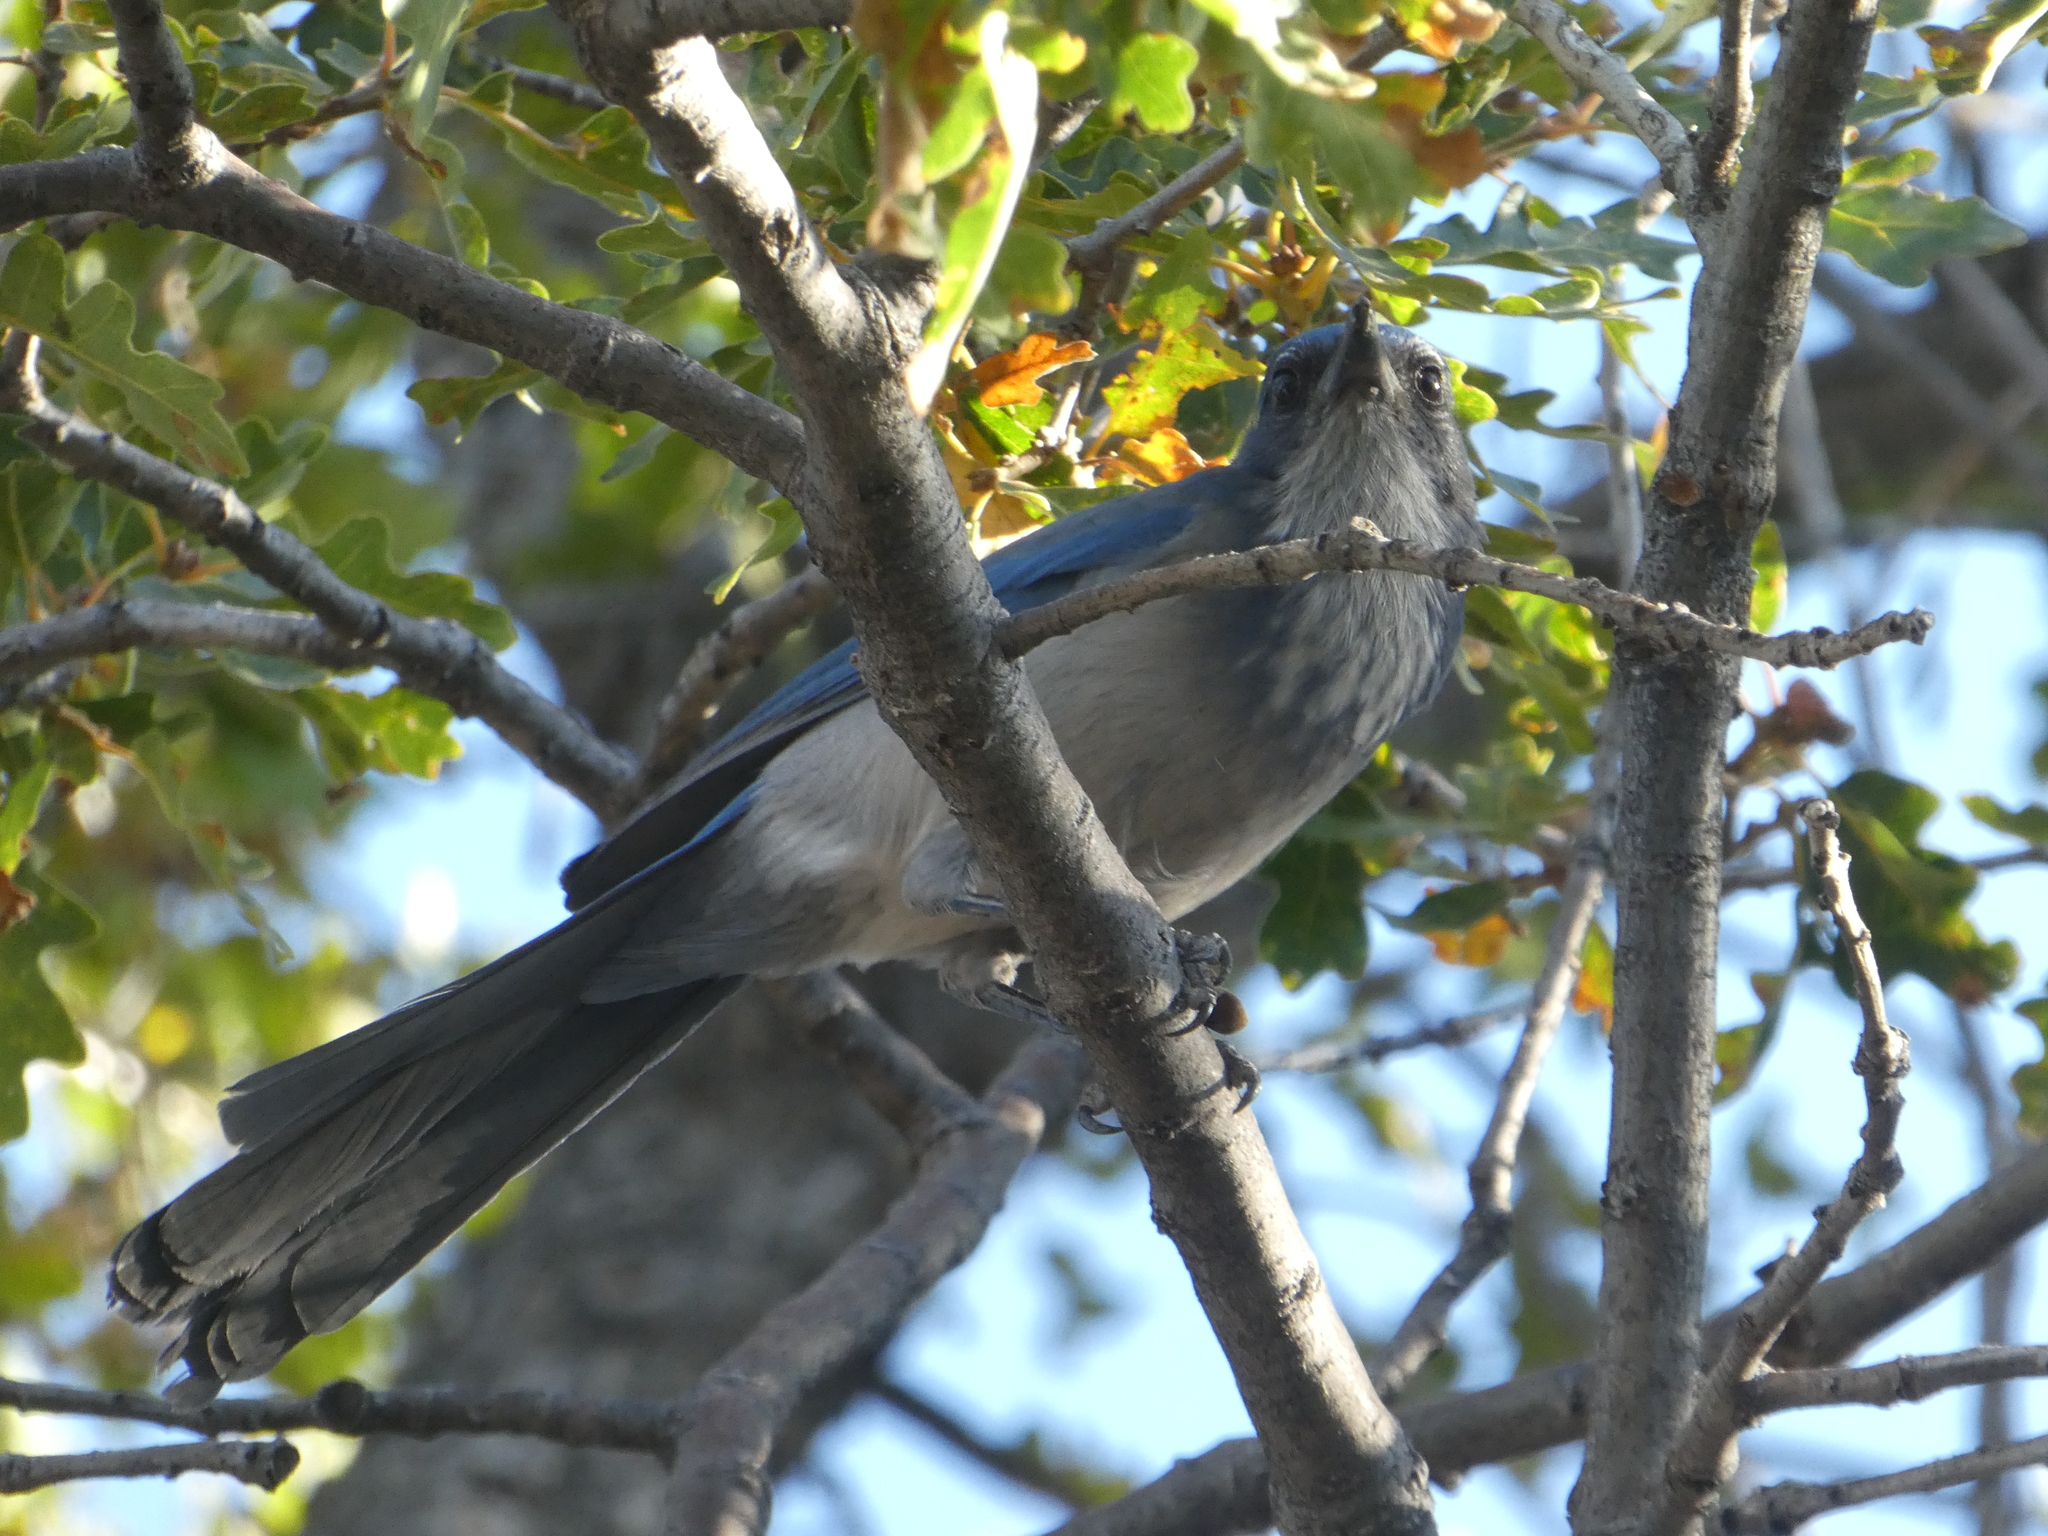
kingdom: Animalia
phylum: Chordata
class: Aves
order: Passeriformes
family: Corvidae
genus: Aphelocoma
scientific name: Aphelocoma woodhouseii
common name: Woodhouse's scrub-jay
